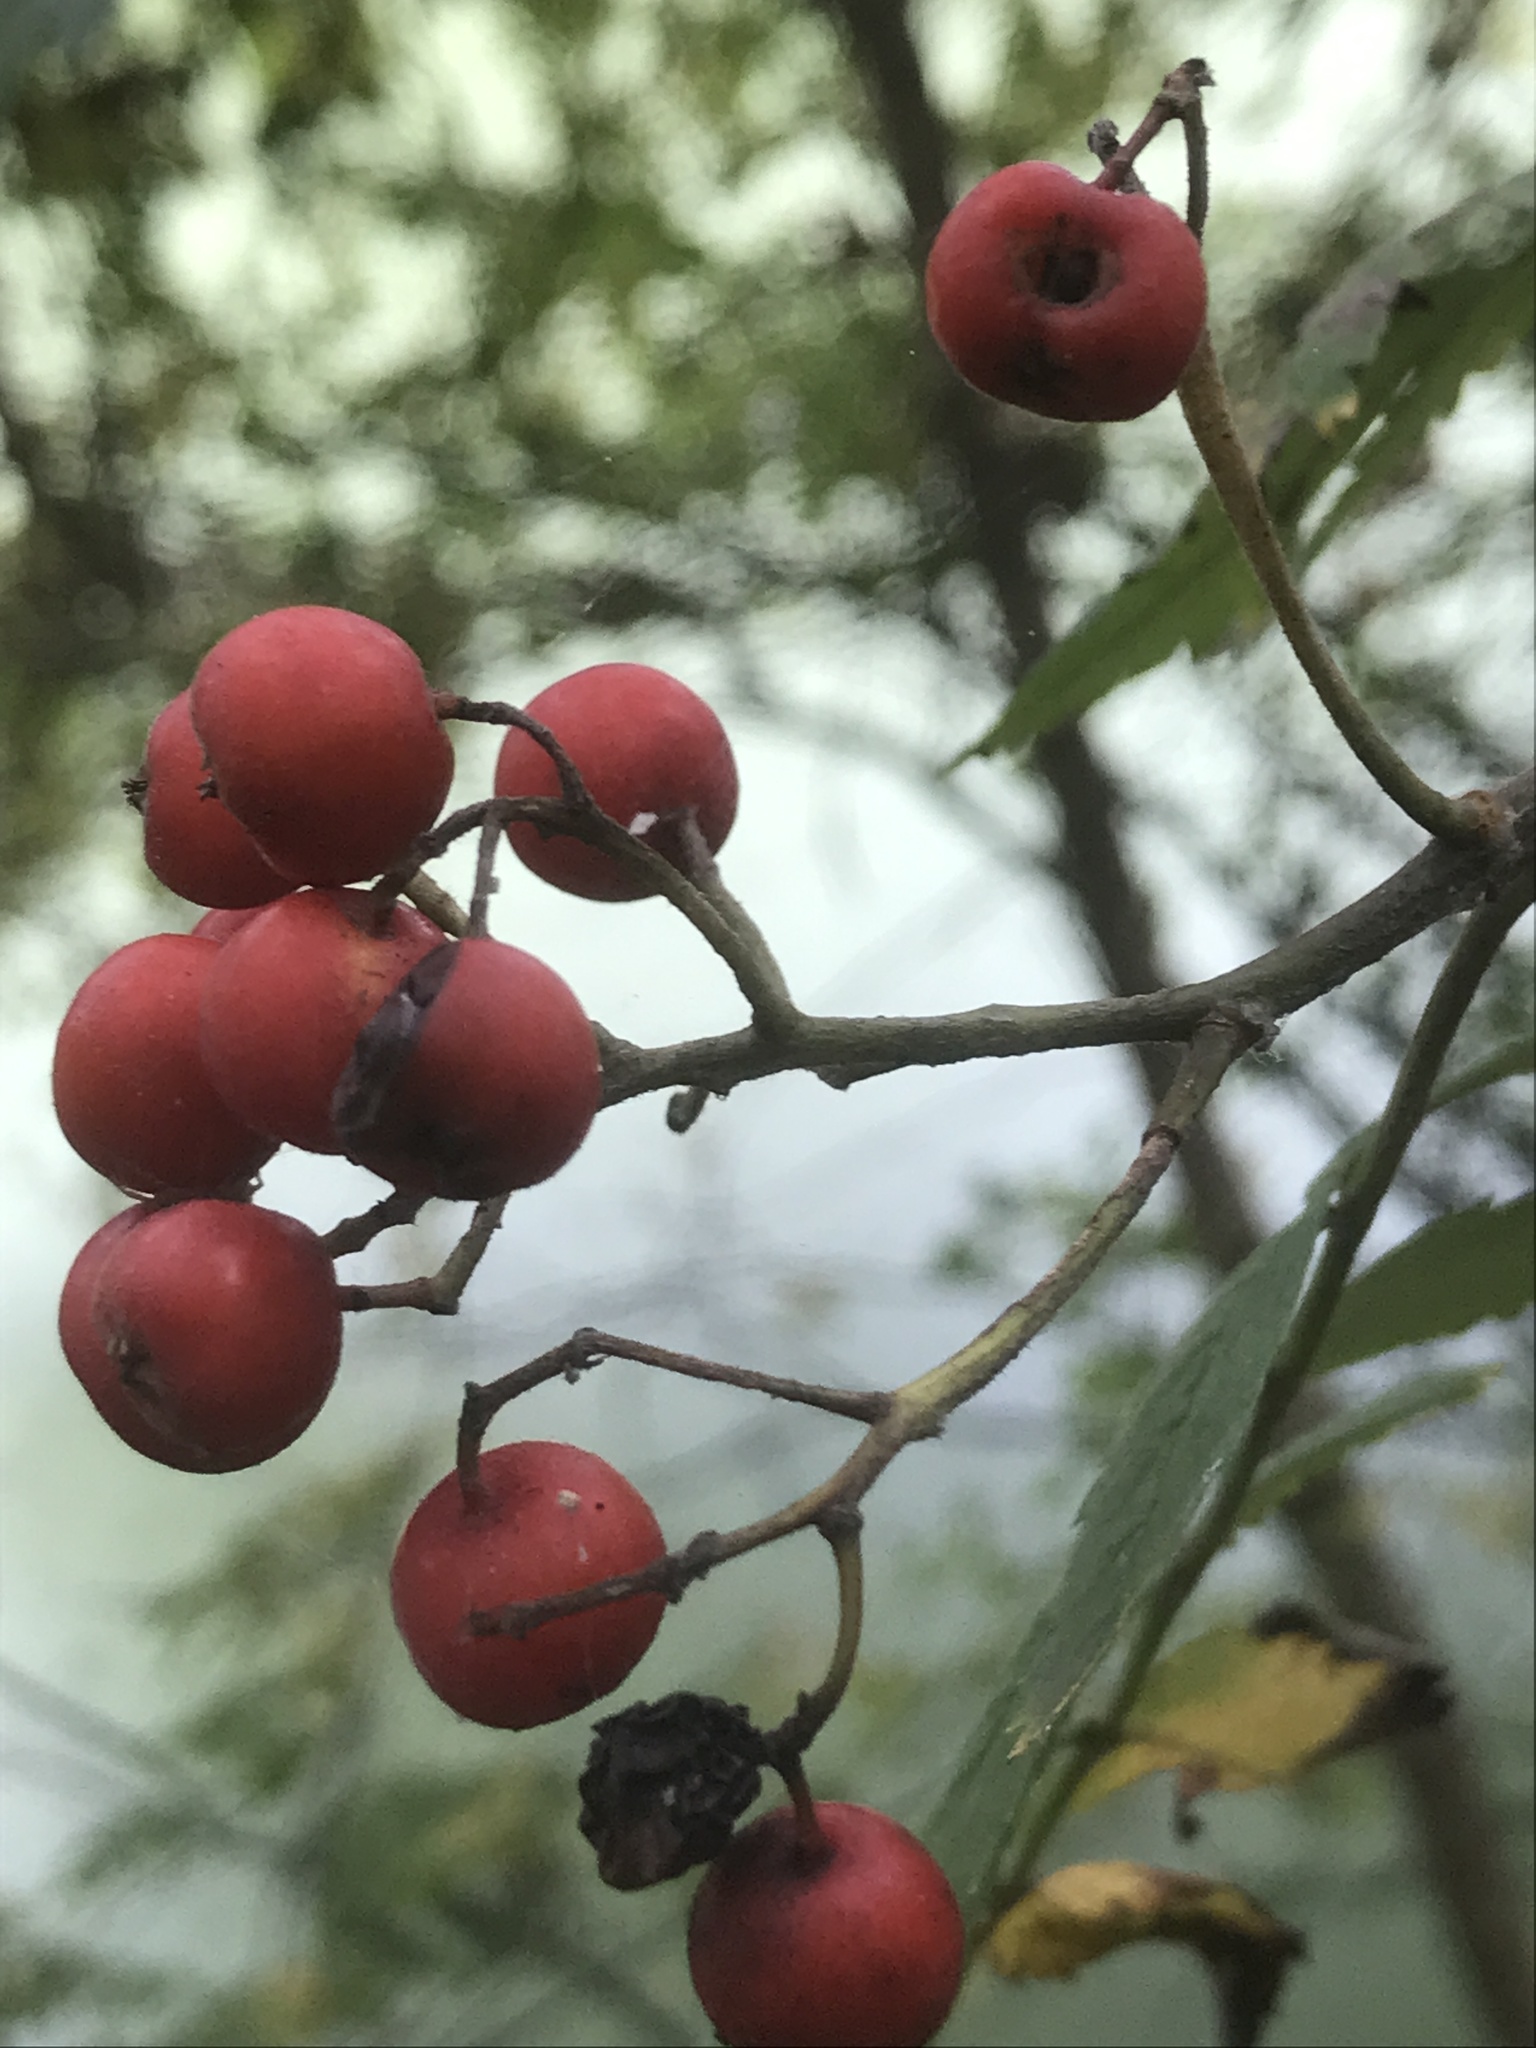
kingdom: Plantae
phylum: Tracheophyta
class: Magnoliopsida
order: Rosales
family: Rosaceae
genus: Sorbus
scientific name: Sorbus aucuparia
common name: Rowan
